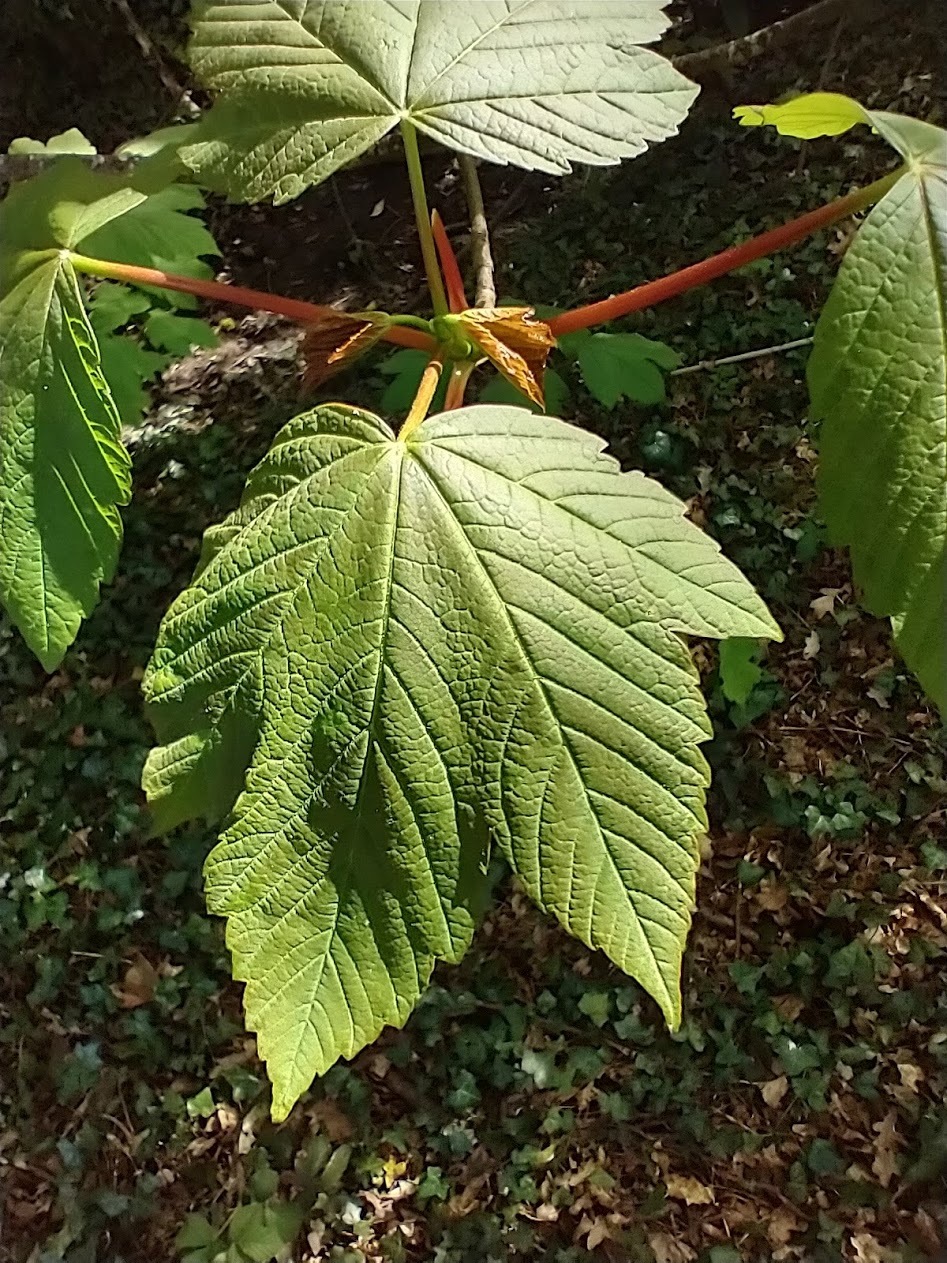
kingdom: Plantae
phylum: Tracheophyta
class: Magnoliopsida
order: Sapindales
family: Sapindaceae
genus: Acer
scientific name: Acer pseudoplatanus
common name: Sycamore
